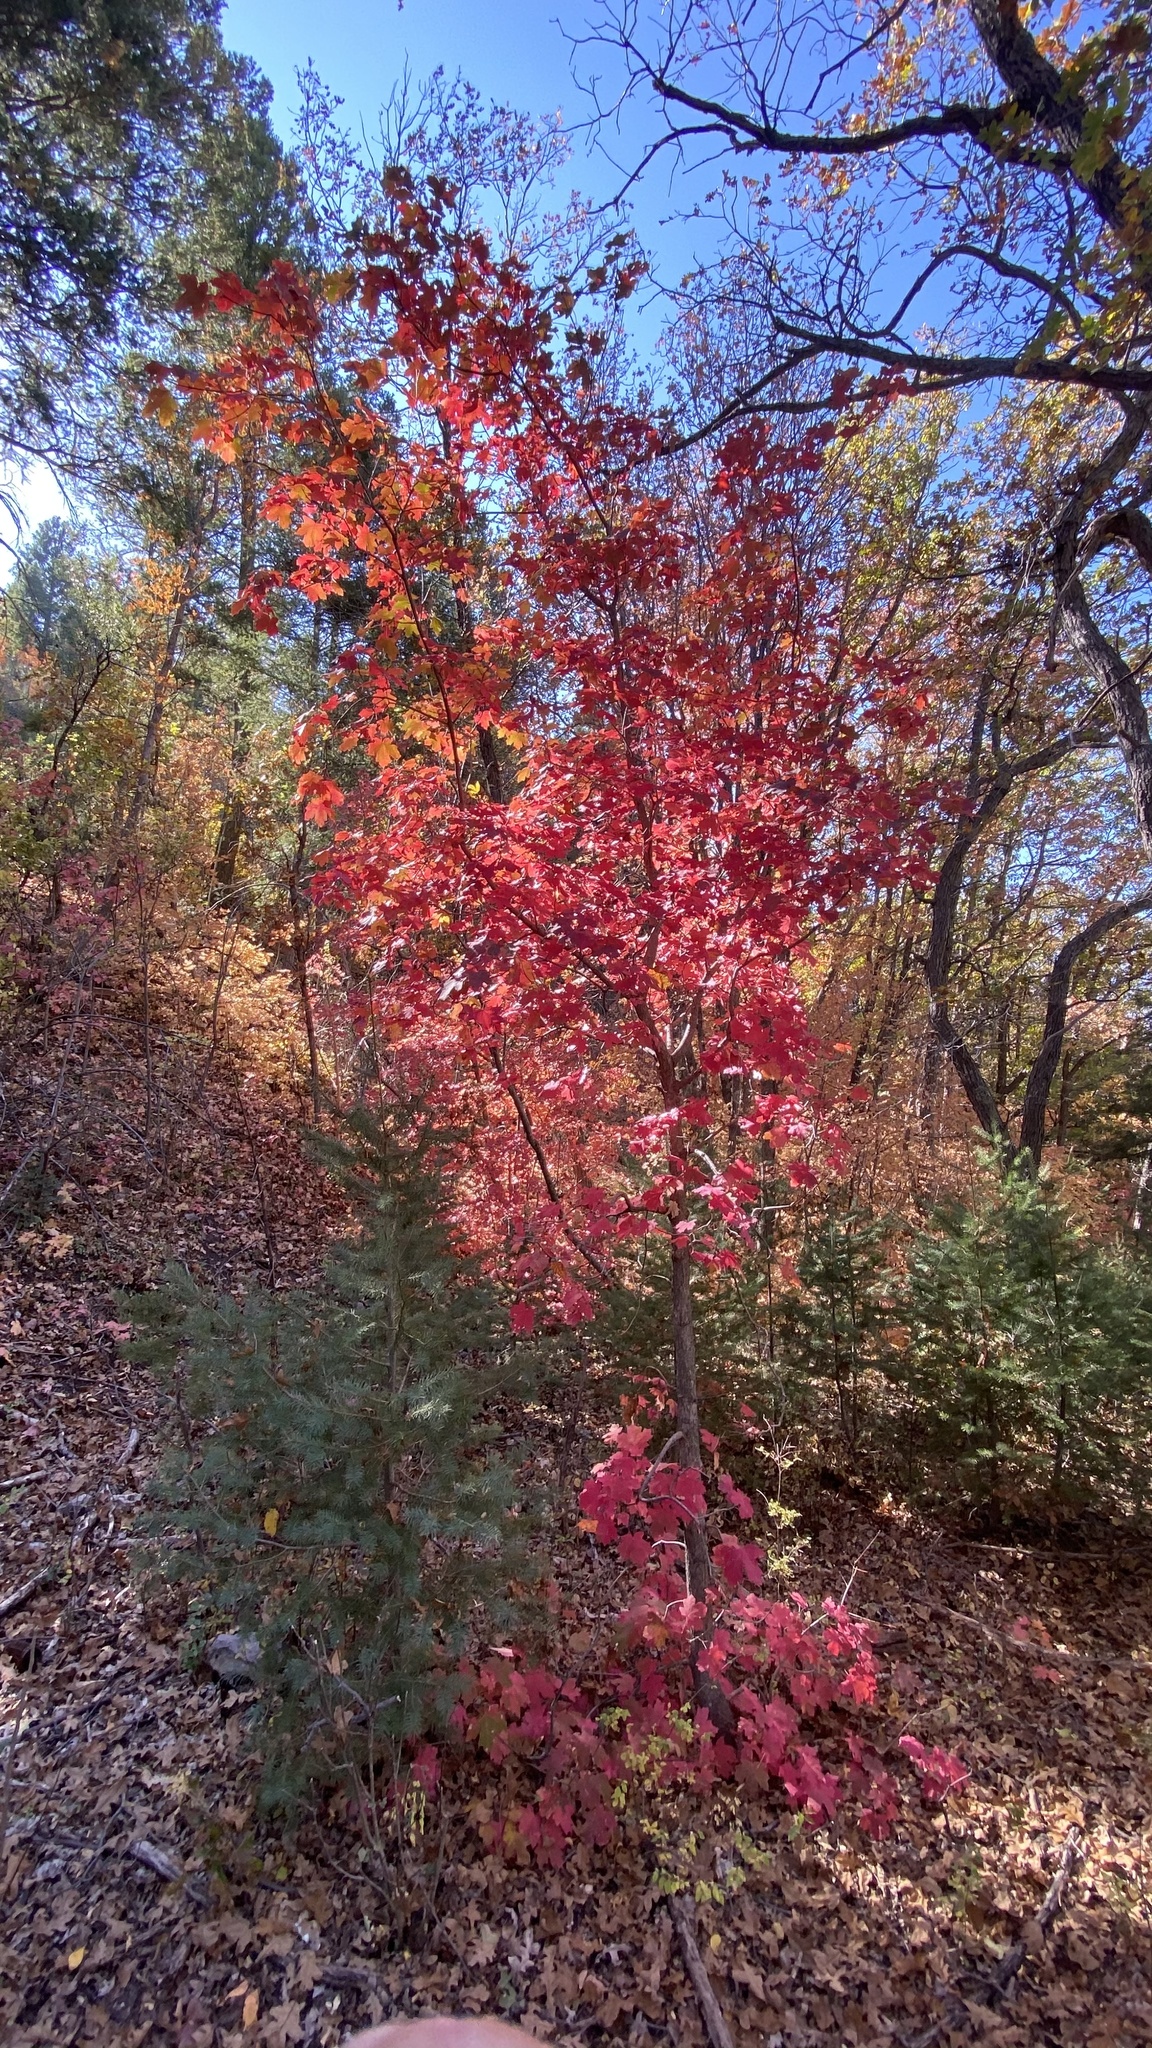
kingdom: Plantae
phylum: Tracheophyta
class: Magnoliopsida
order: Sapindales
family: Sapindaceae
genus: Acer
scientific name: Acer grandidentatum
